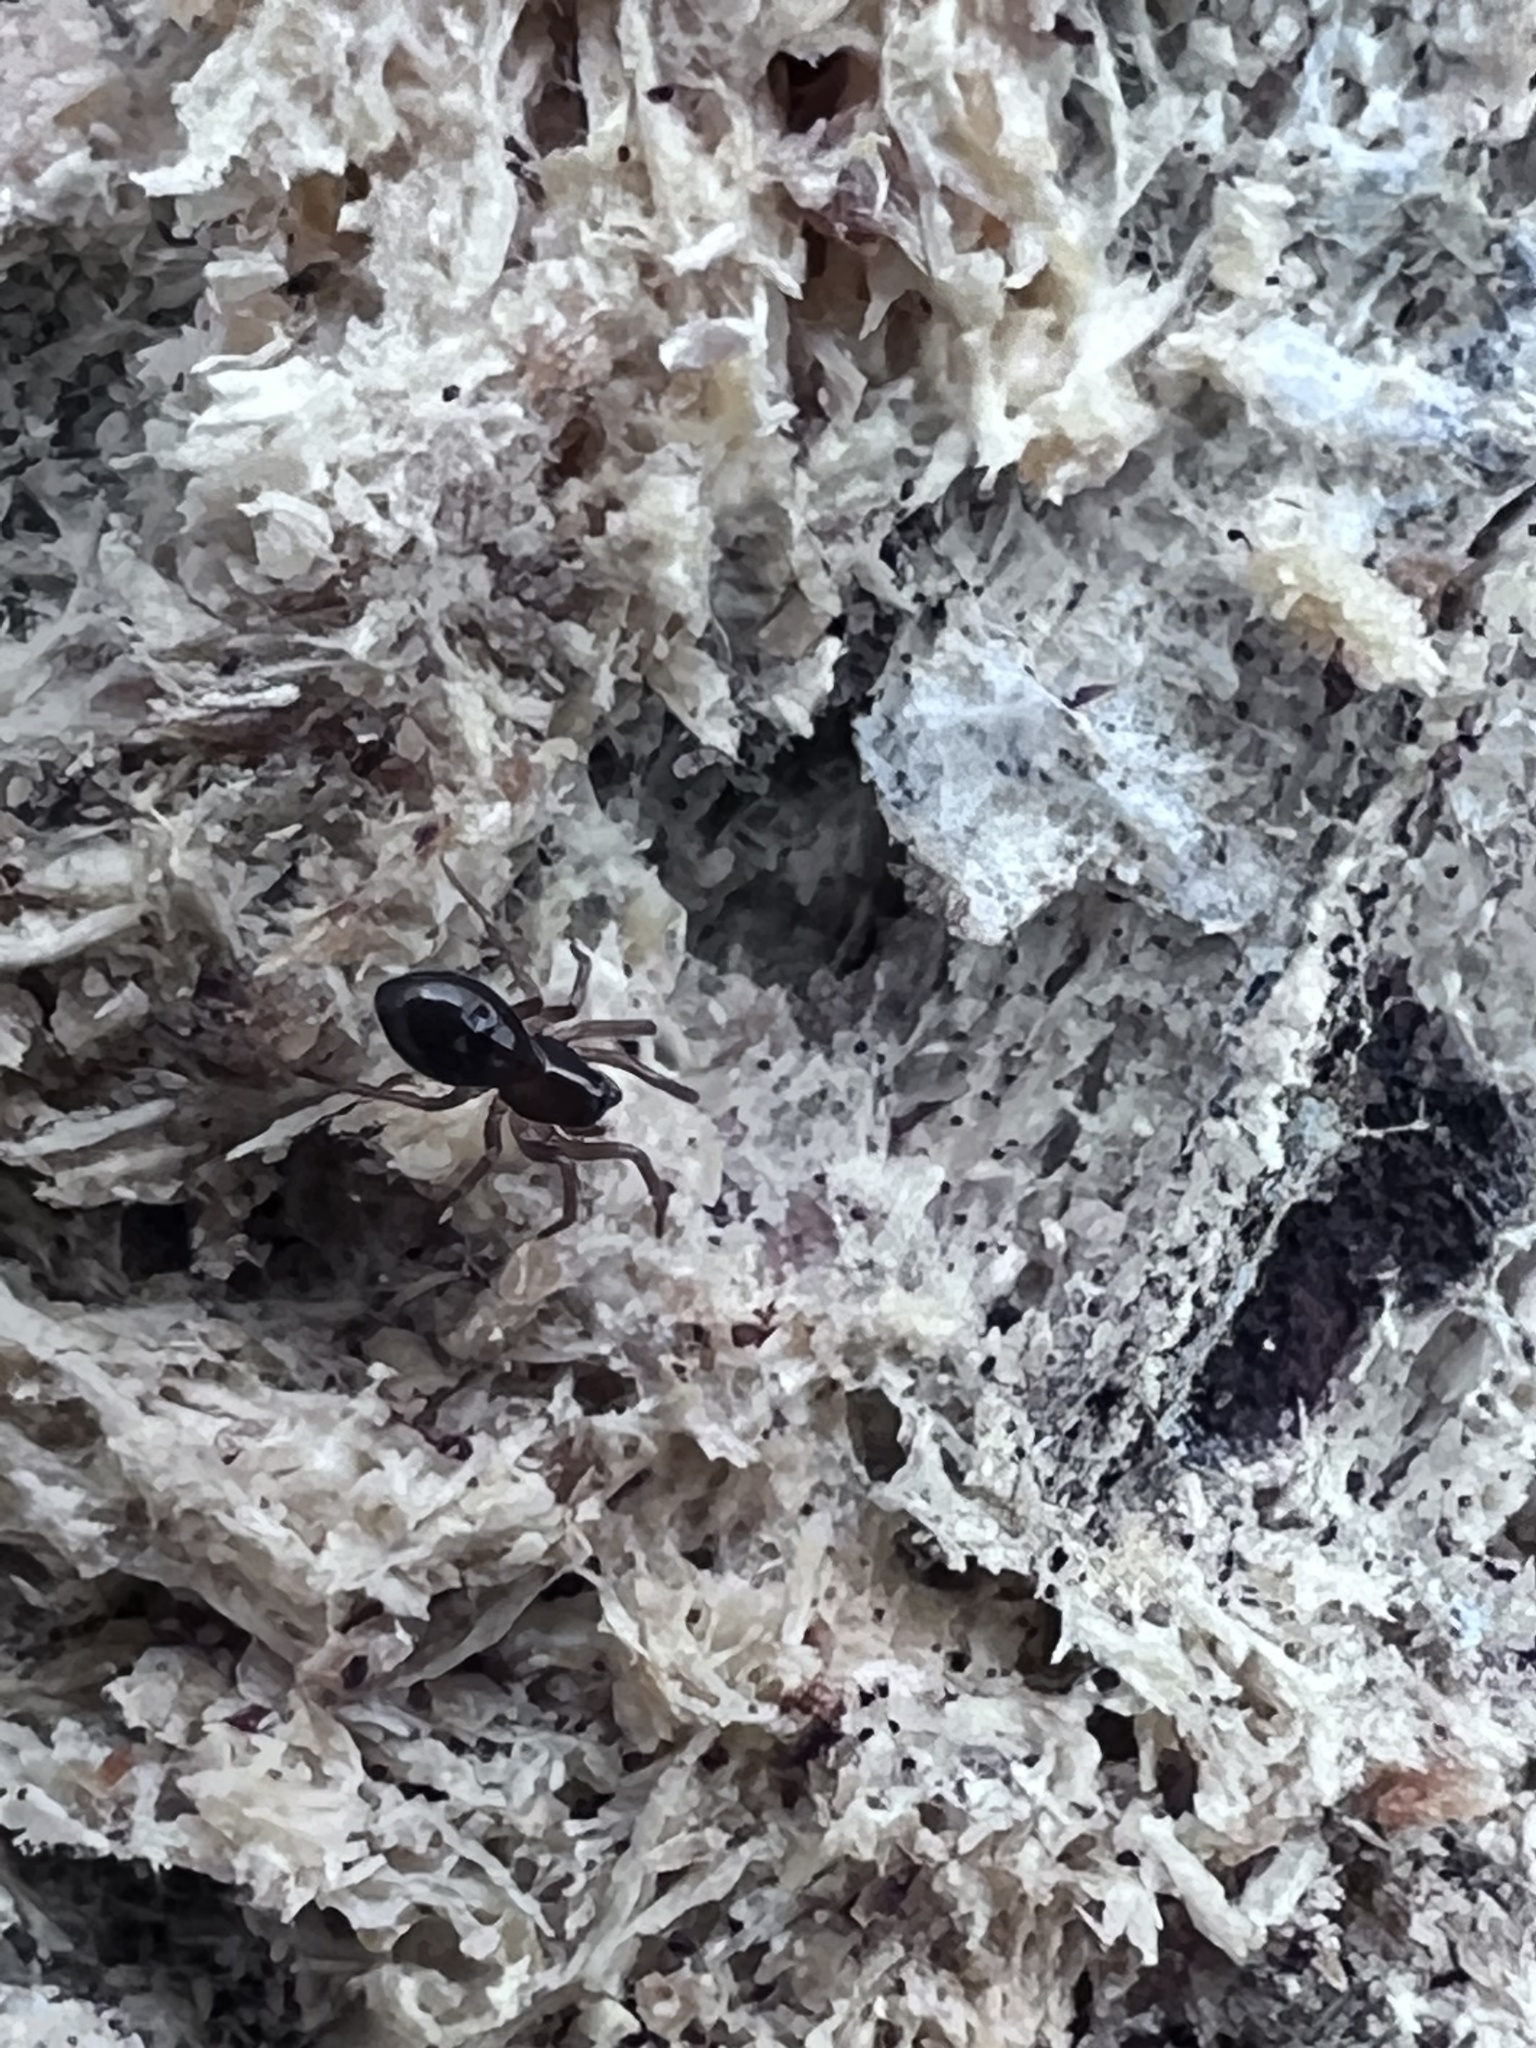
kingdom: Animalia
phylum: Arthropoda
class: Arachnida
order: Araneae
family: Theridiidae
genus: Steatoda
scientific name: Steatoda borealis
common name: Boreal combfoot
